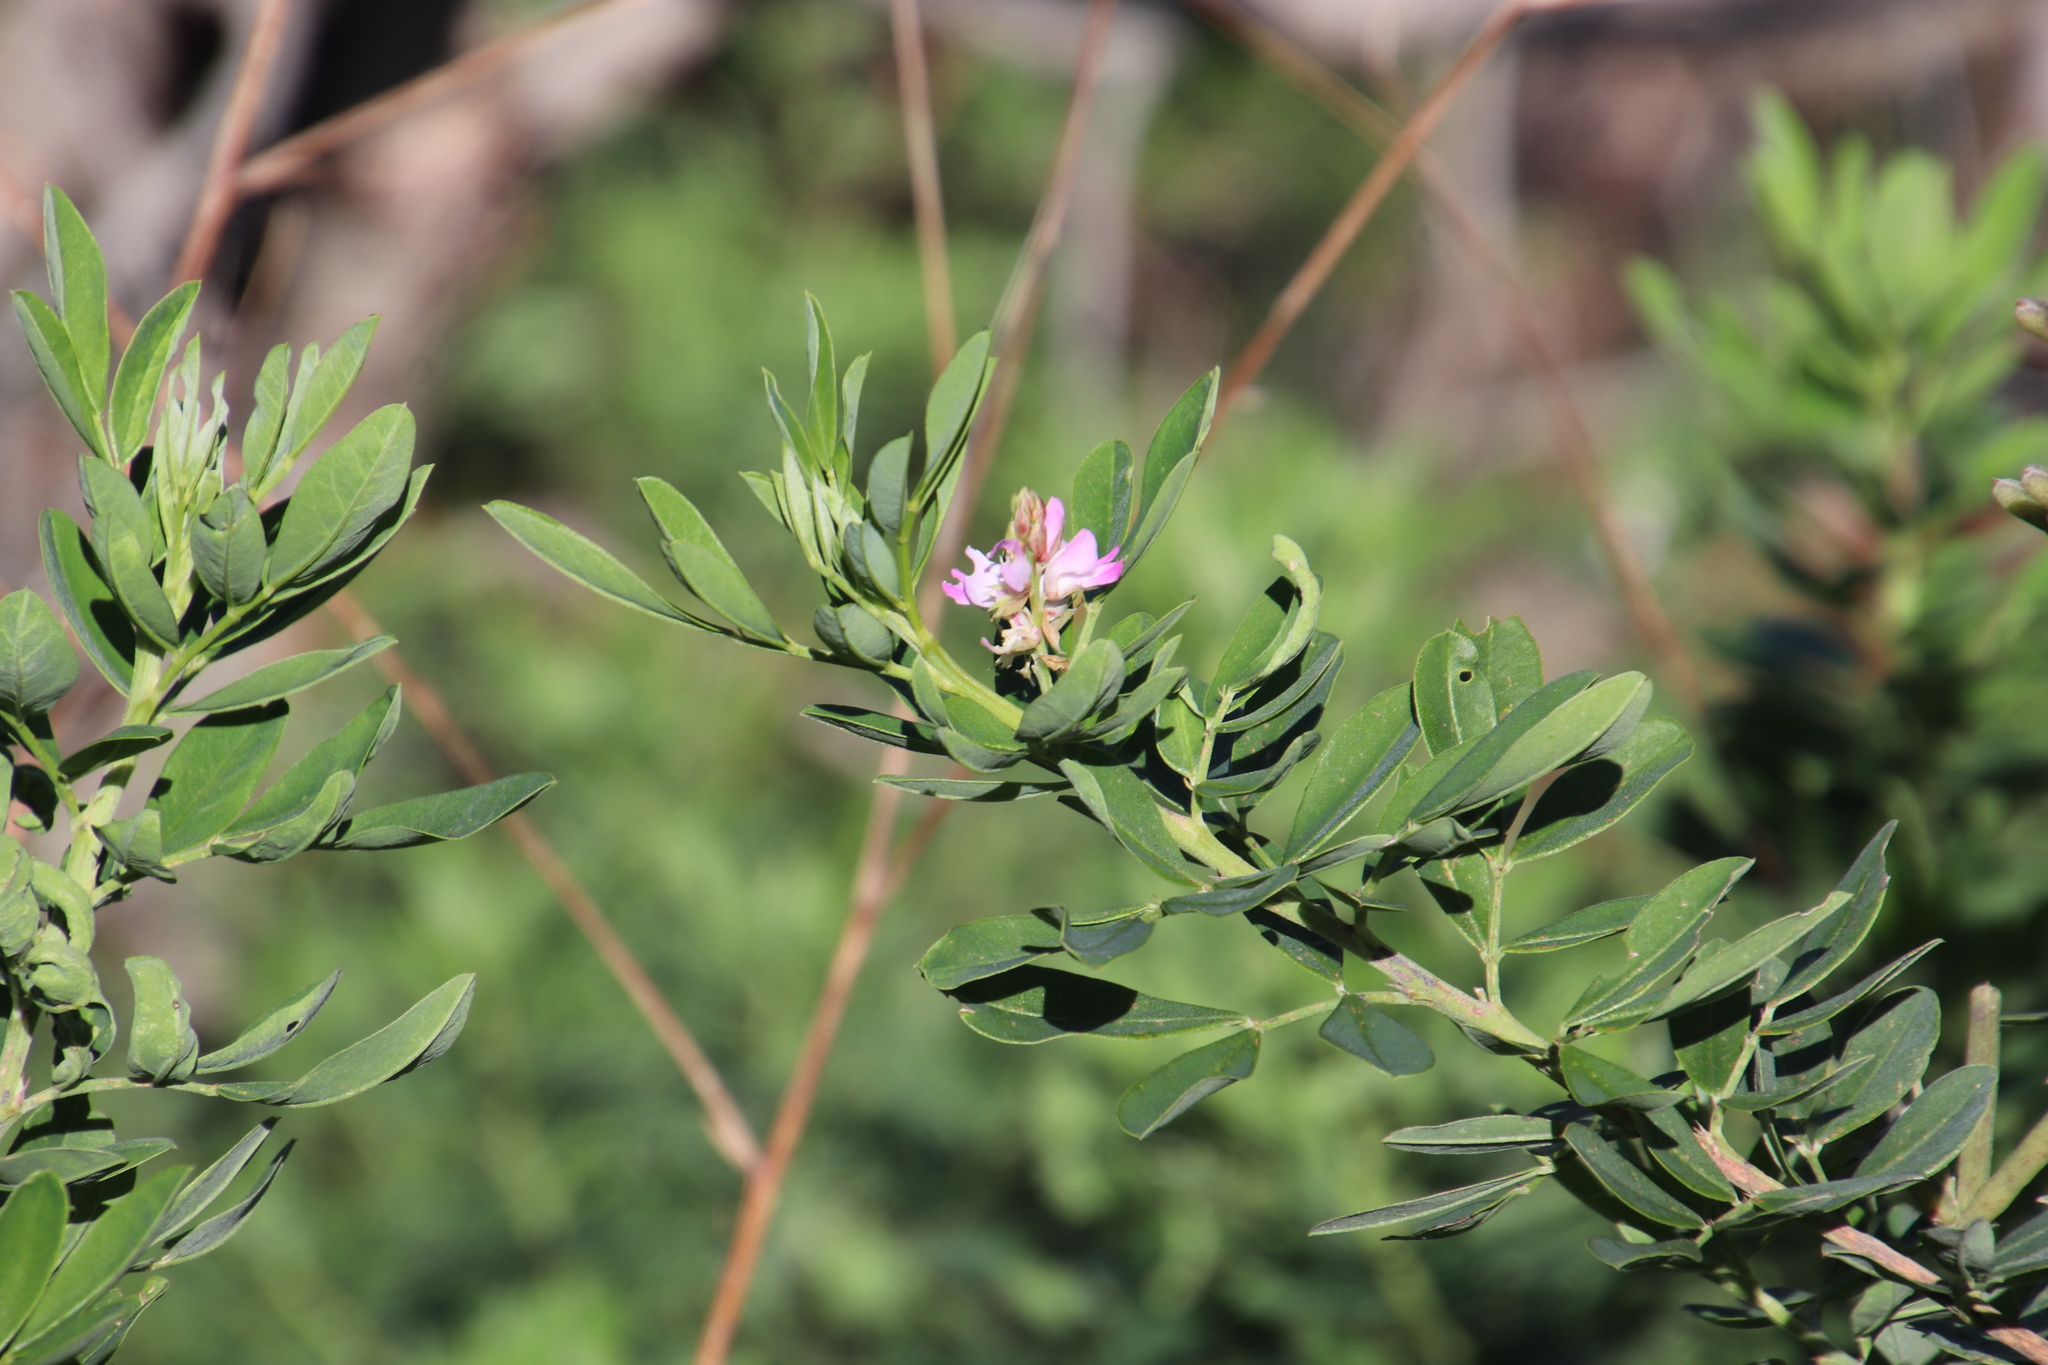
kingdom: Plantae
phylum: Tracheophyta
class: Magnoliopsida
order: Fabales
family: Fabaceae
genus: Indigofera
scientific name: Indigofera cytisoides
